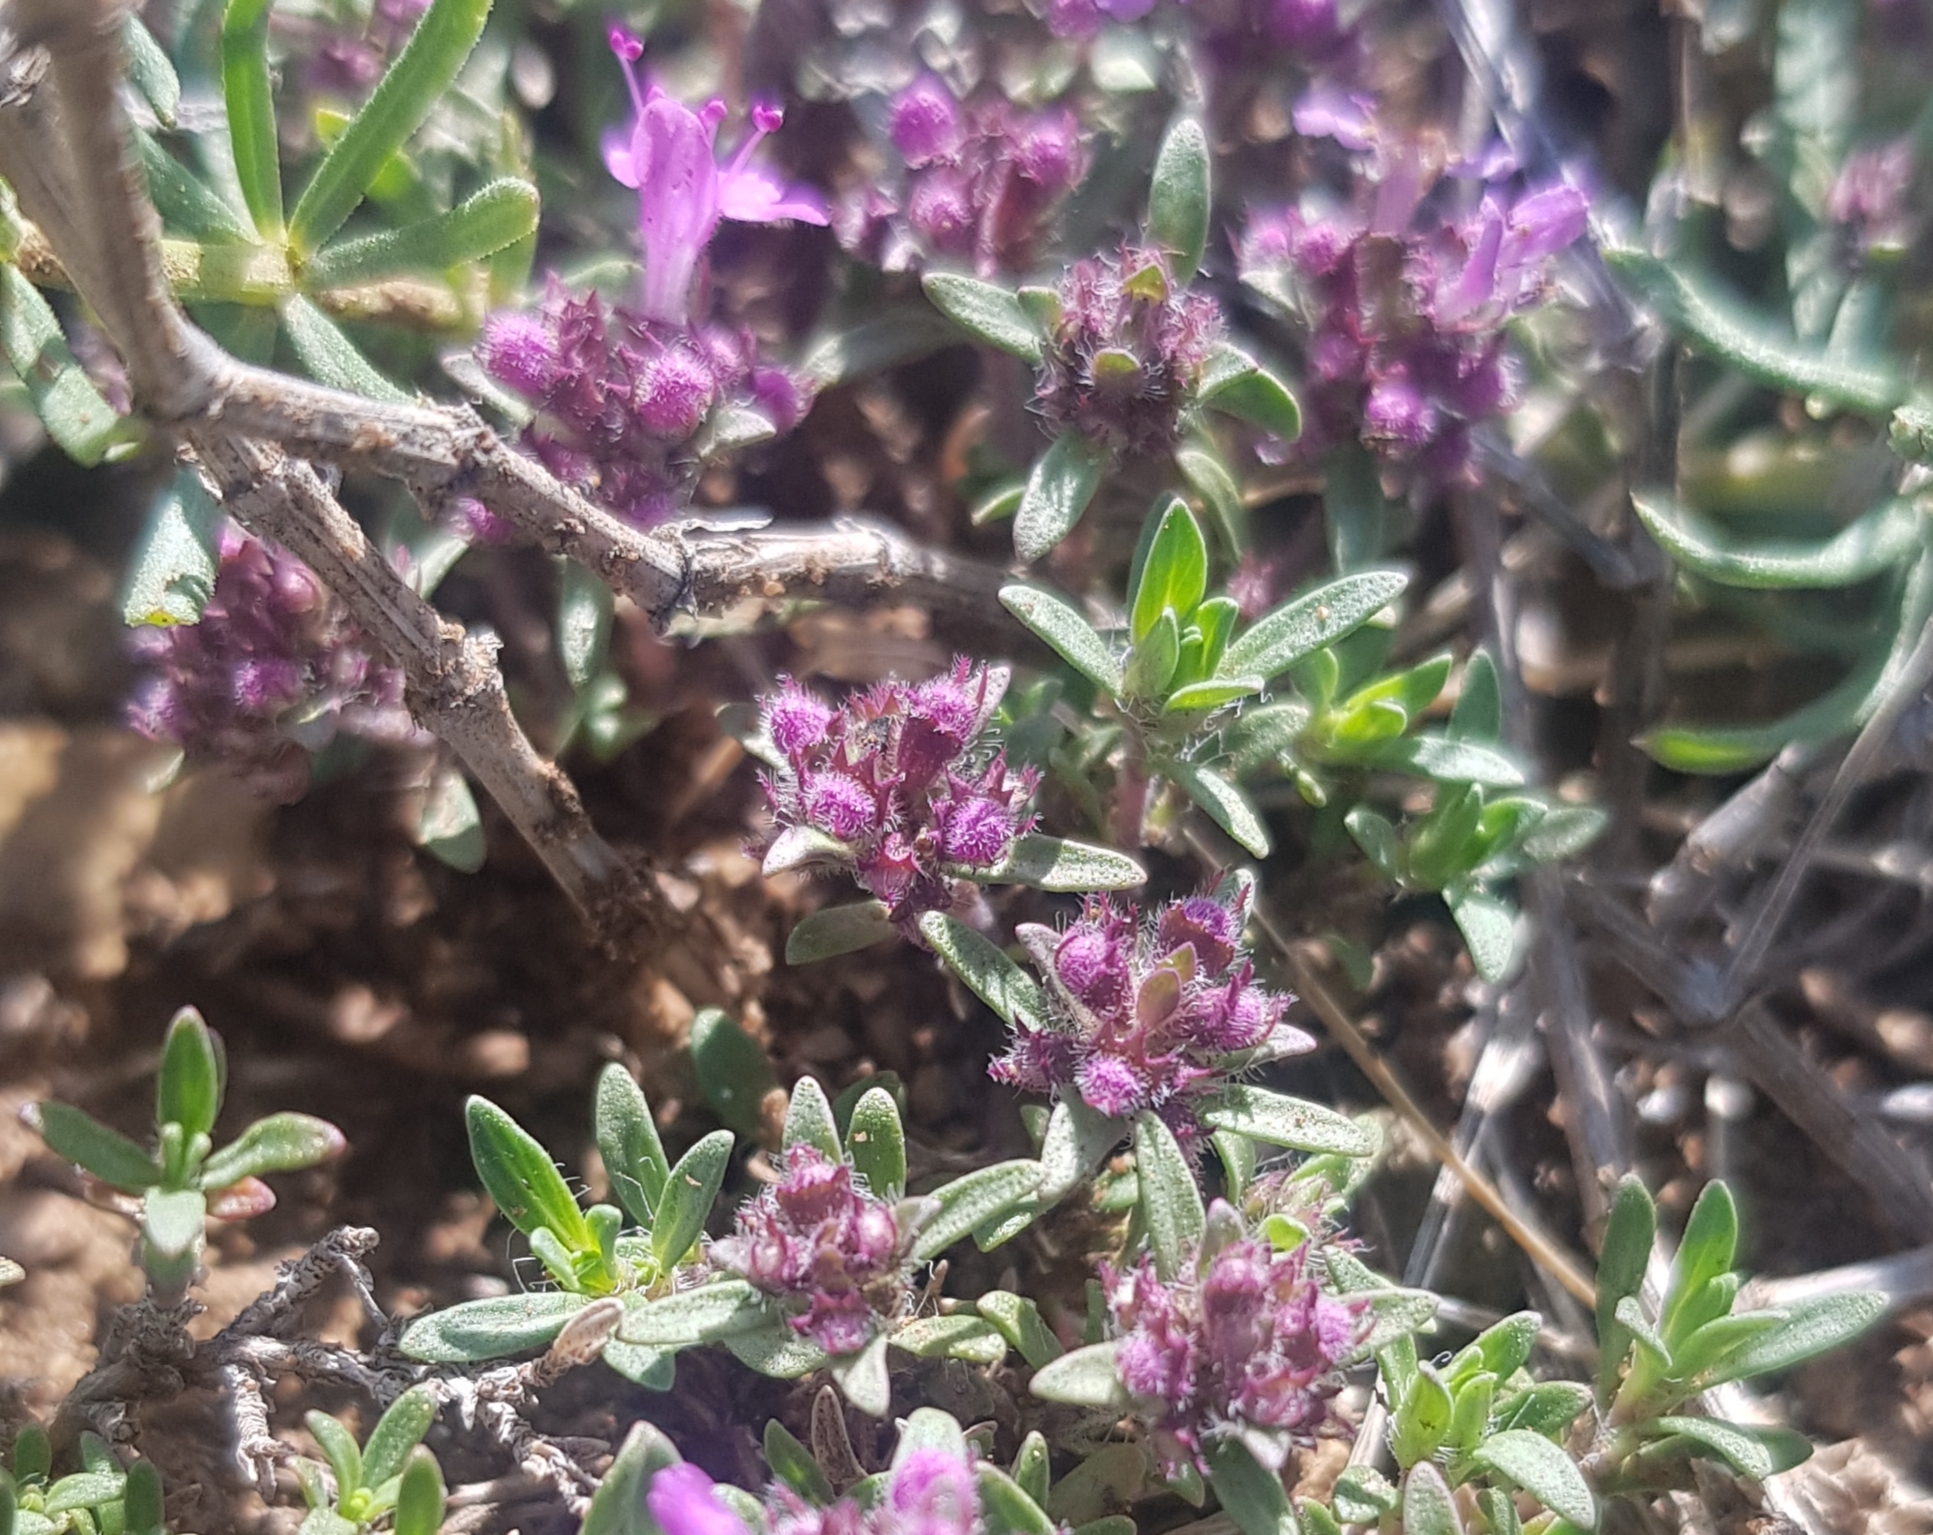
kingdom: Plantae
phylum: Tracheophyta
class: Magnoliopsida
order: Lamiales
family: Lamiaceae
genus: Thymus
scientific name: Thymus baicalensis
